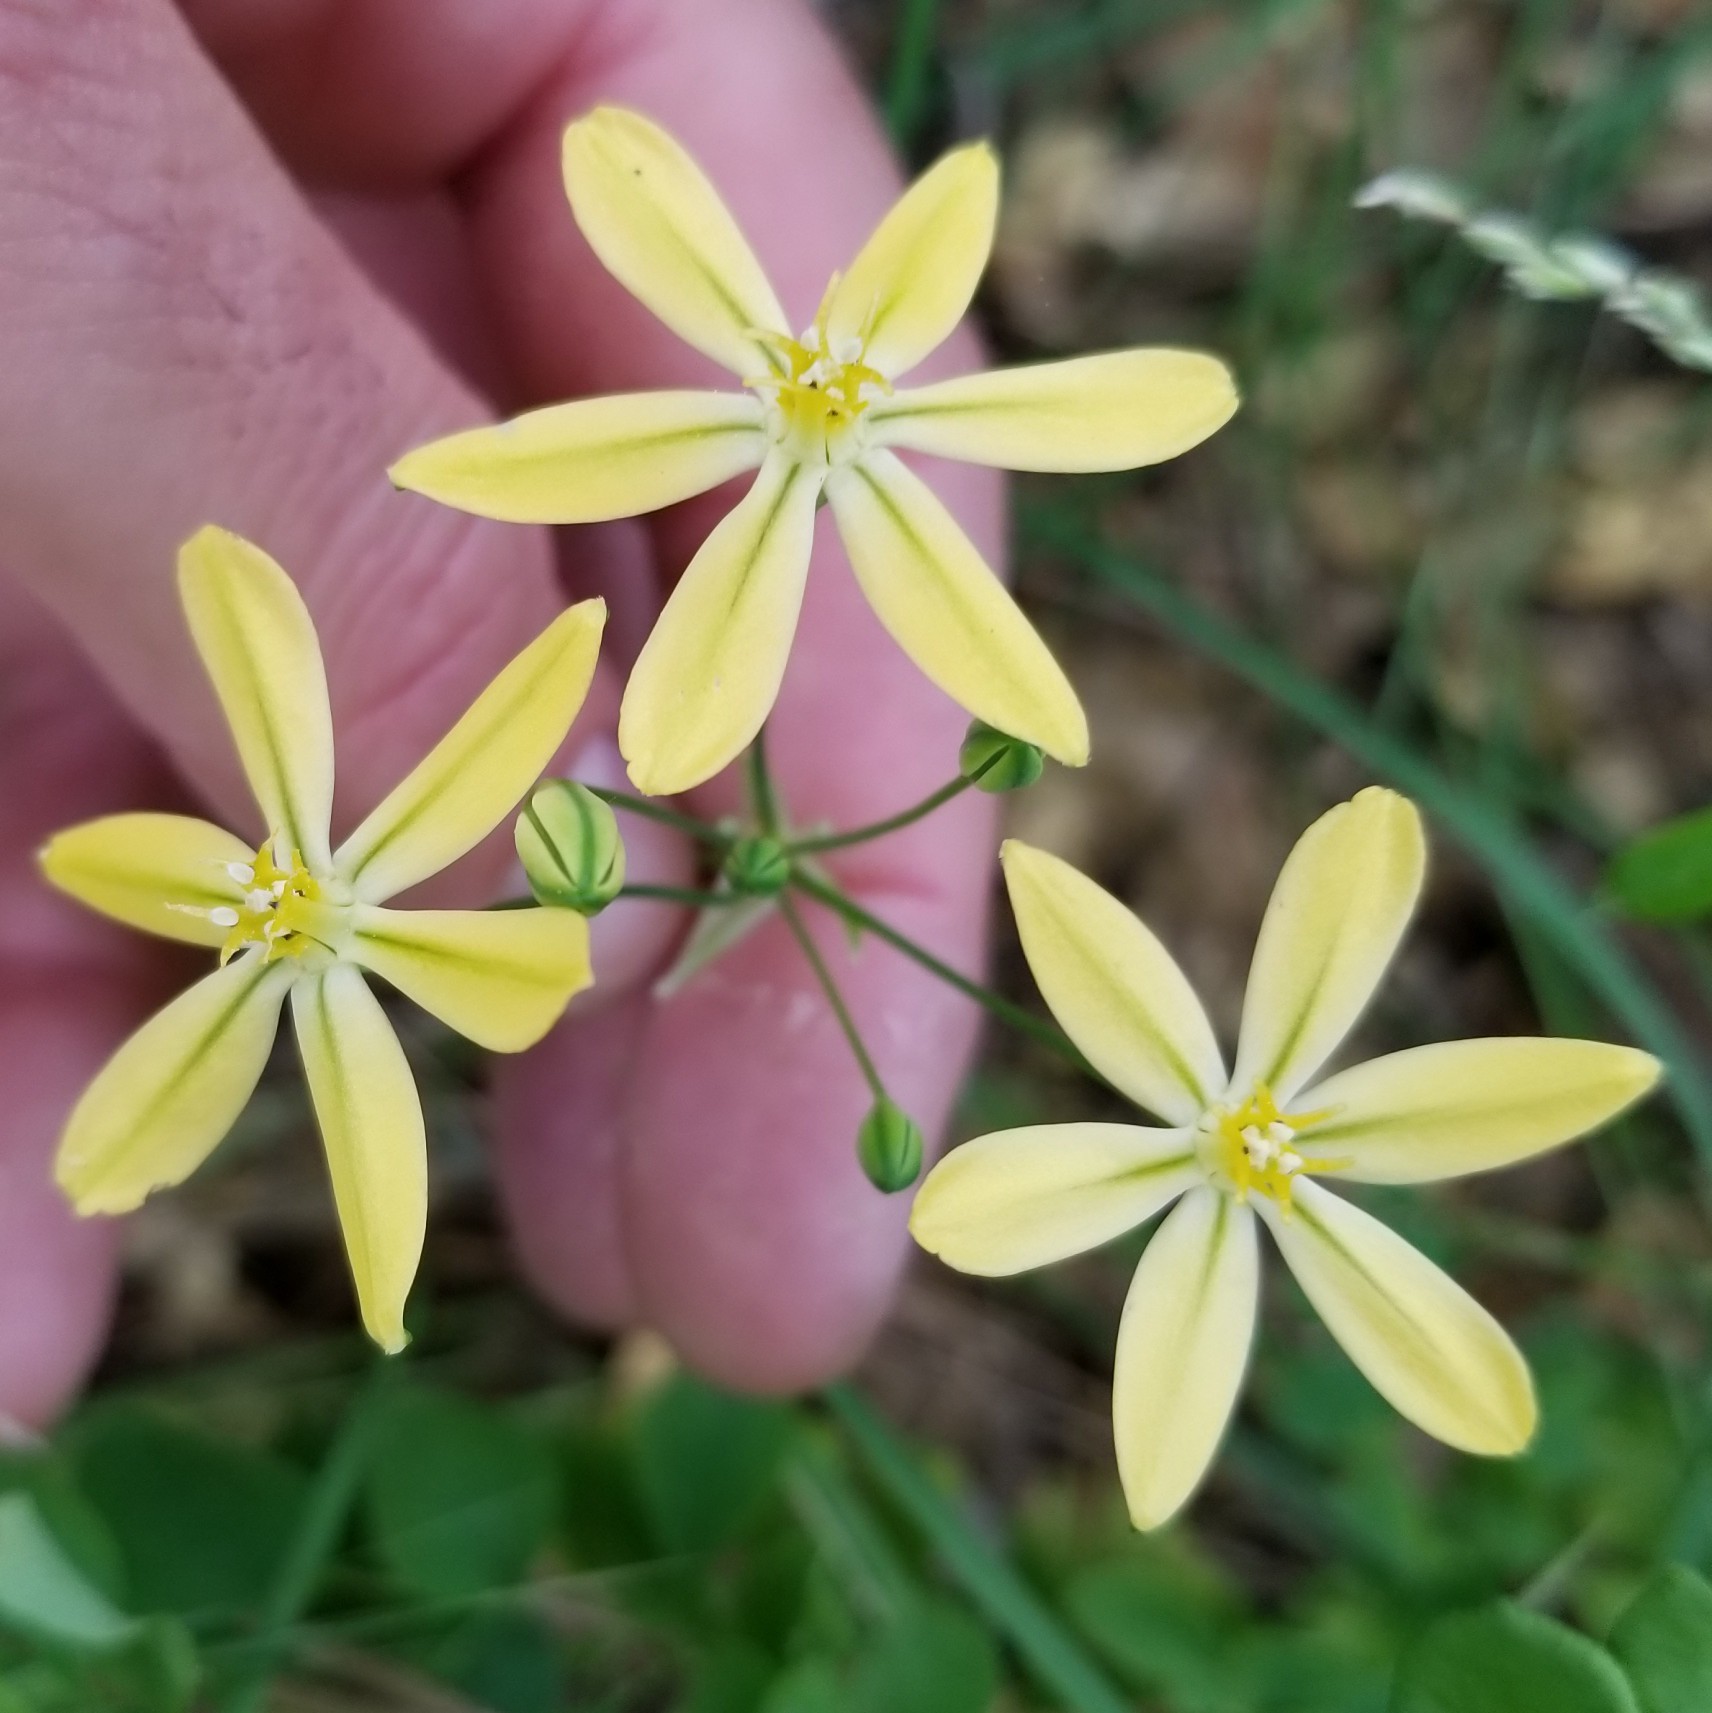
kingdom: Plantae
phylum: Tracheophyta
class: Liliopsida
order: Asparagales
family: Asparagaceae
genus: Triteleia
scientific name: Triteleia ixioides
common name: Yellow-brodiaea
